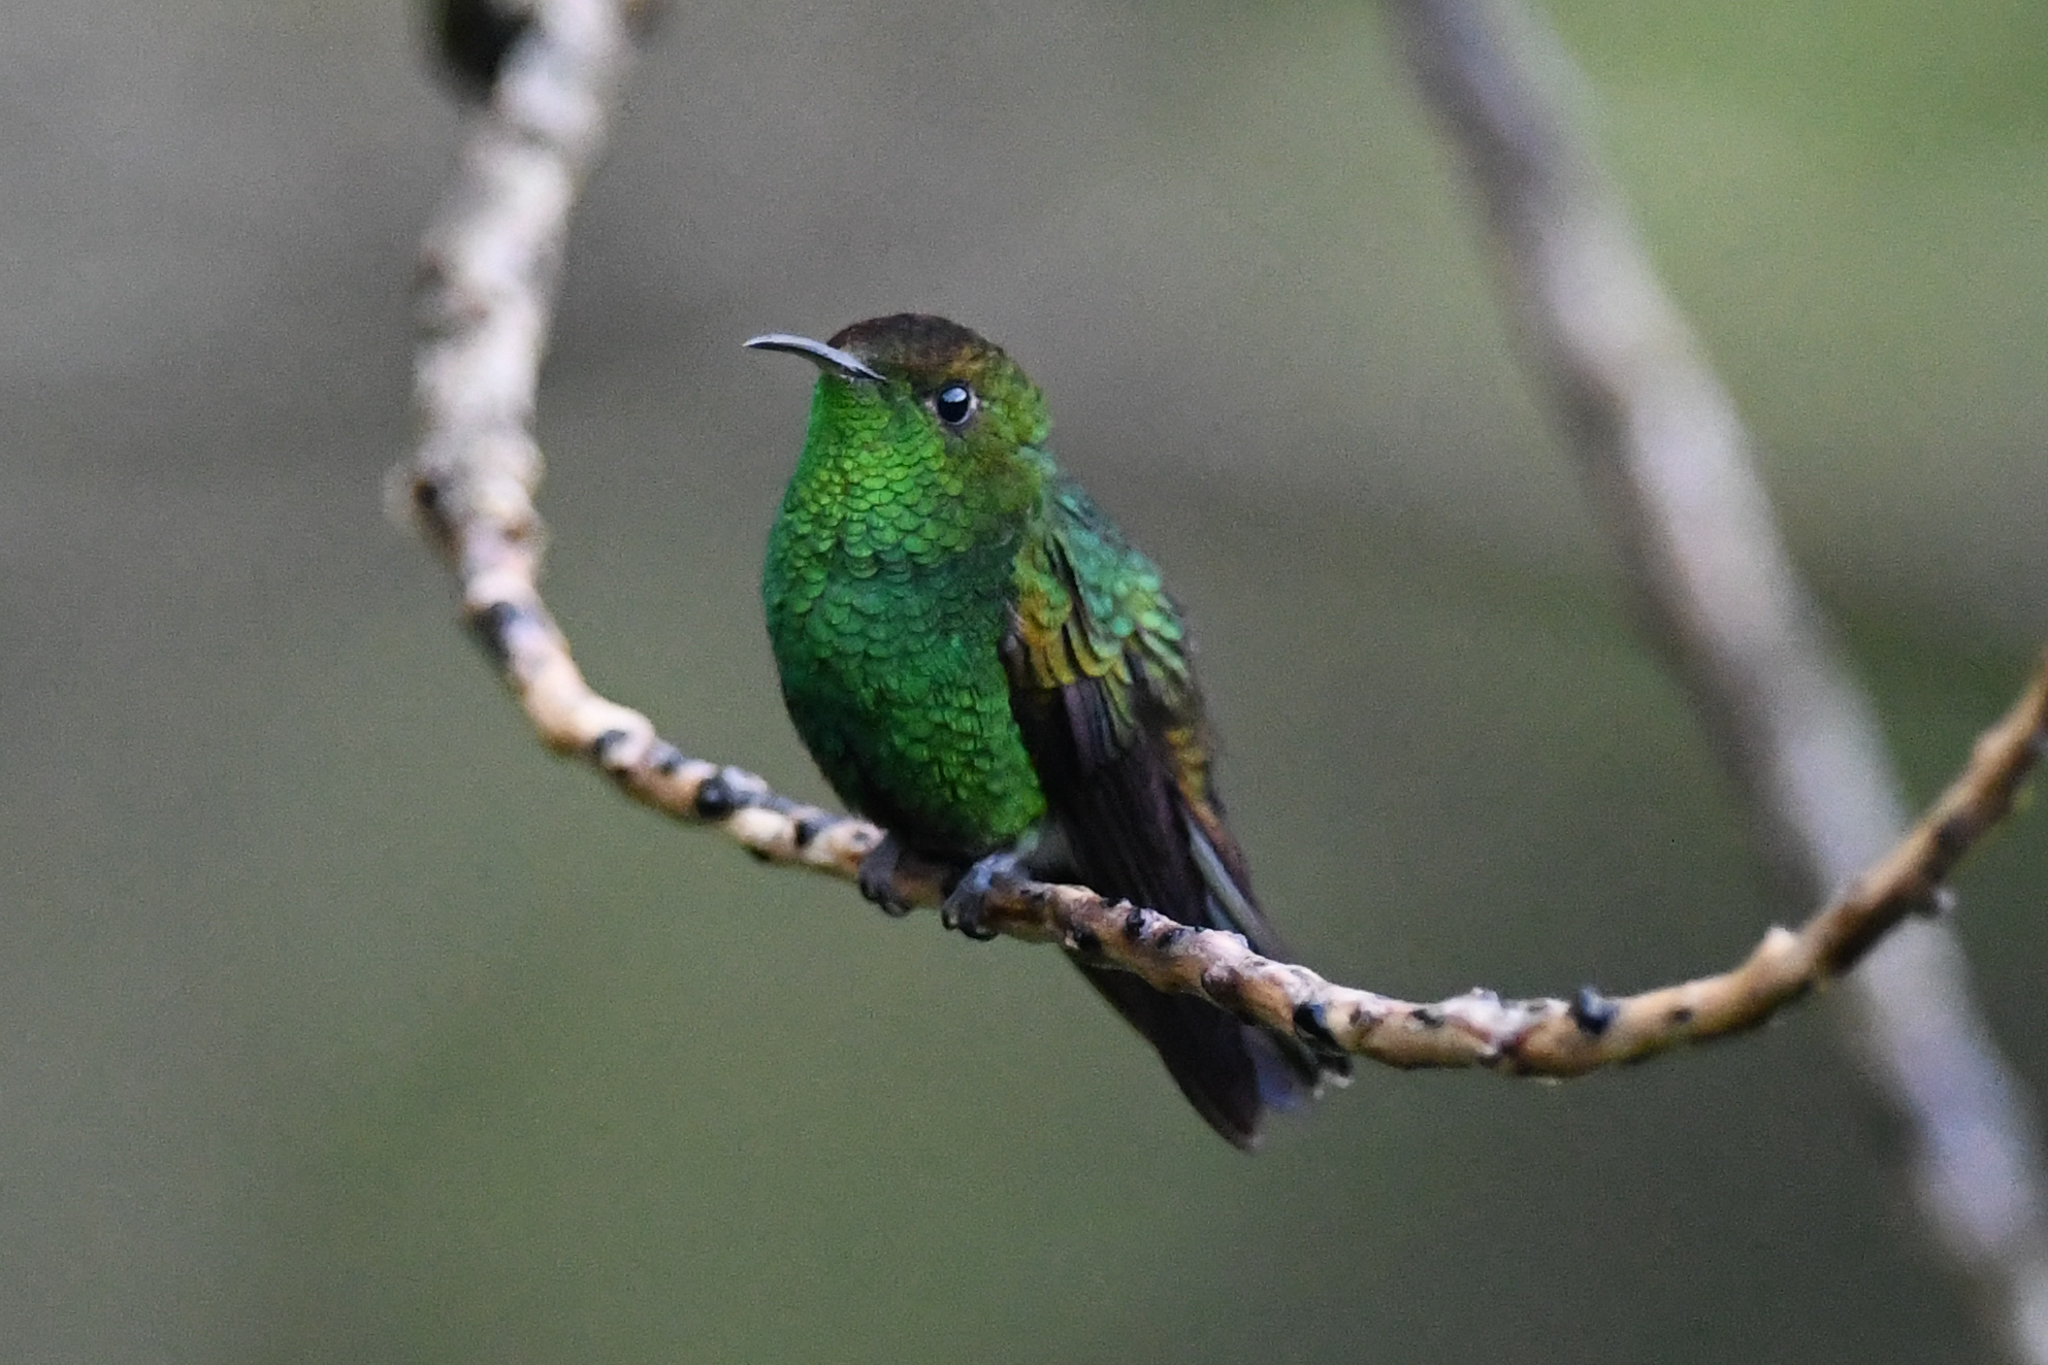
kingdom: Animalia
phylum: Chordata
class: Aves
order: Apodiformes
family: Trochilidae
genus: Microchera
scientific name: Microchera cupreiceps
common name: Coppery-headed emerald
